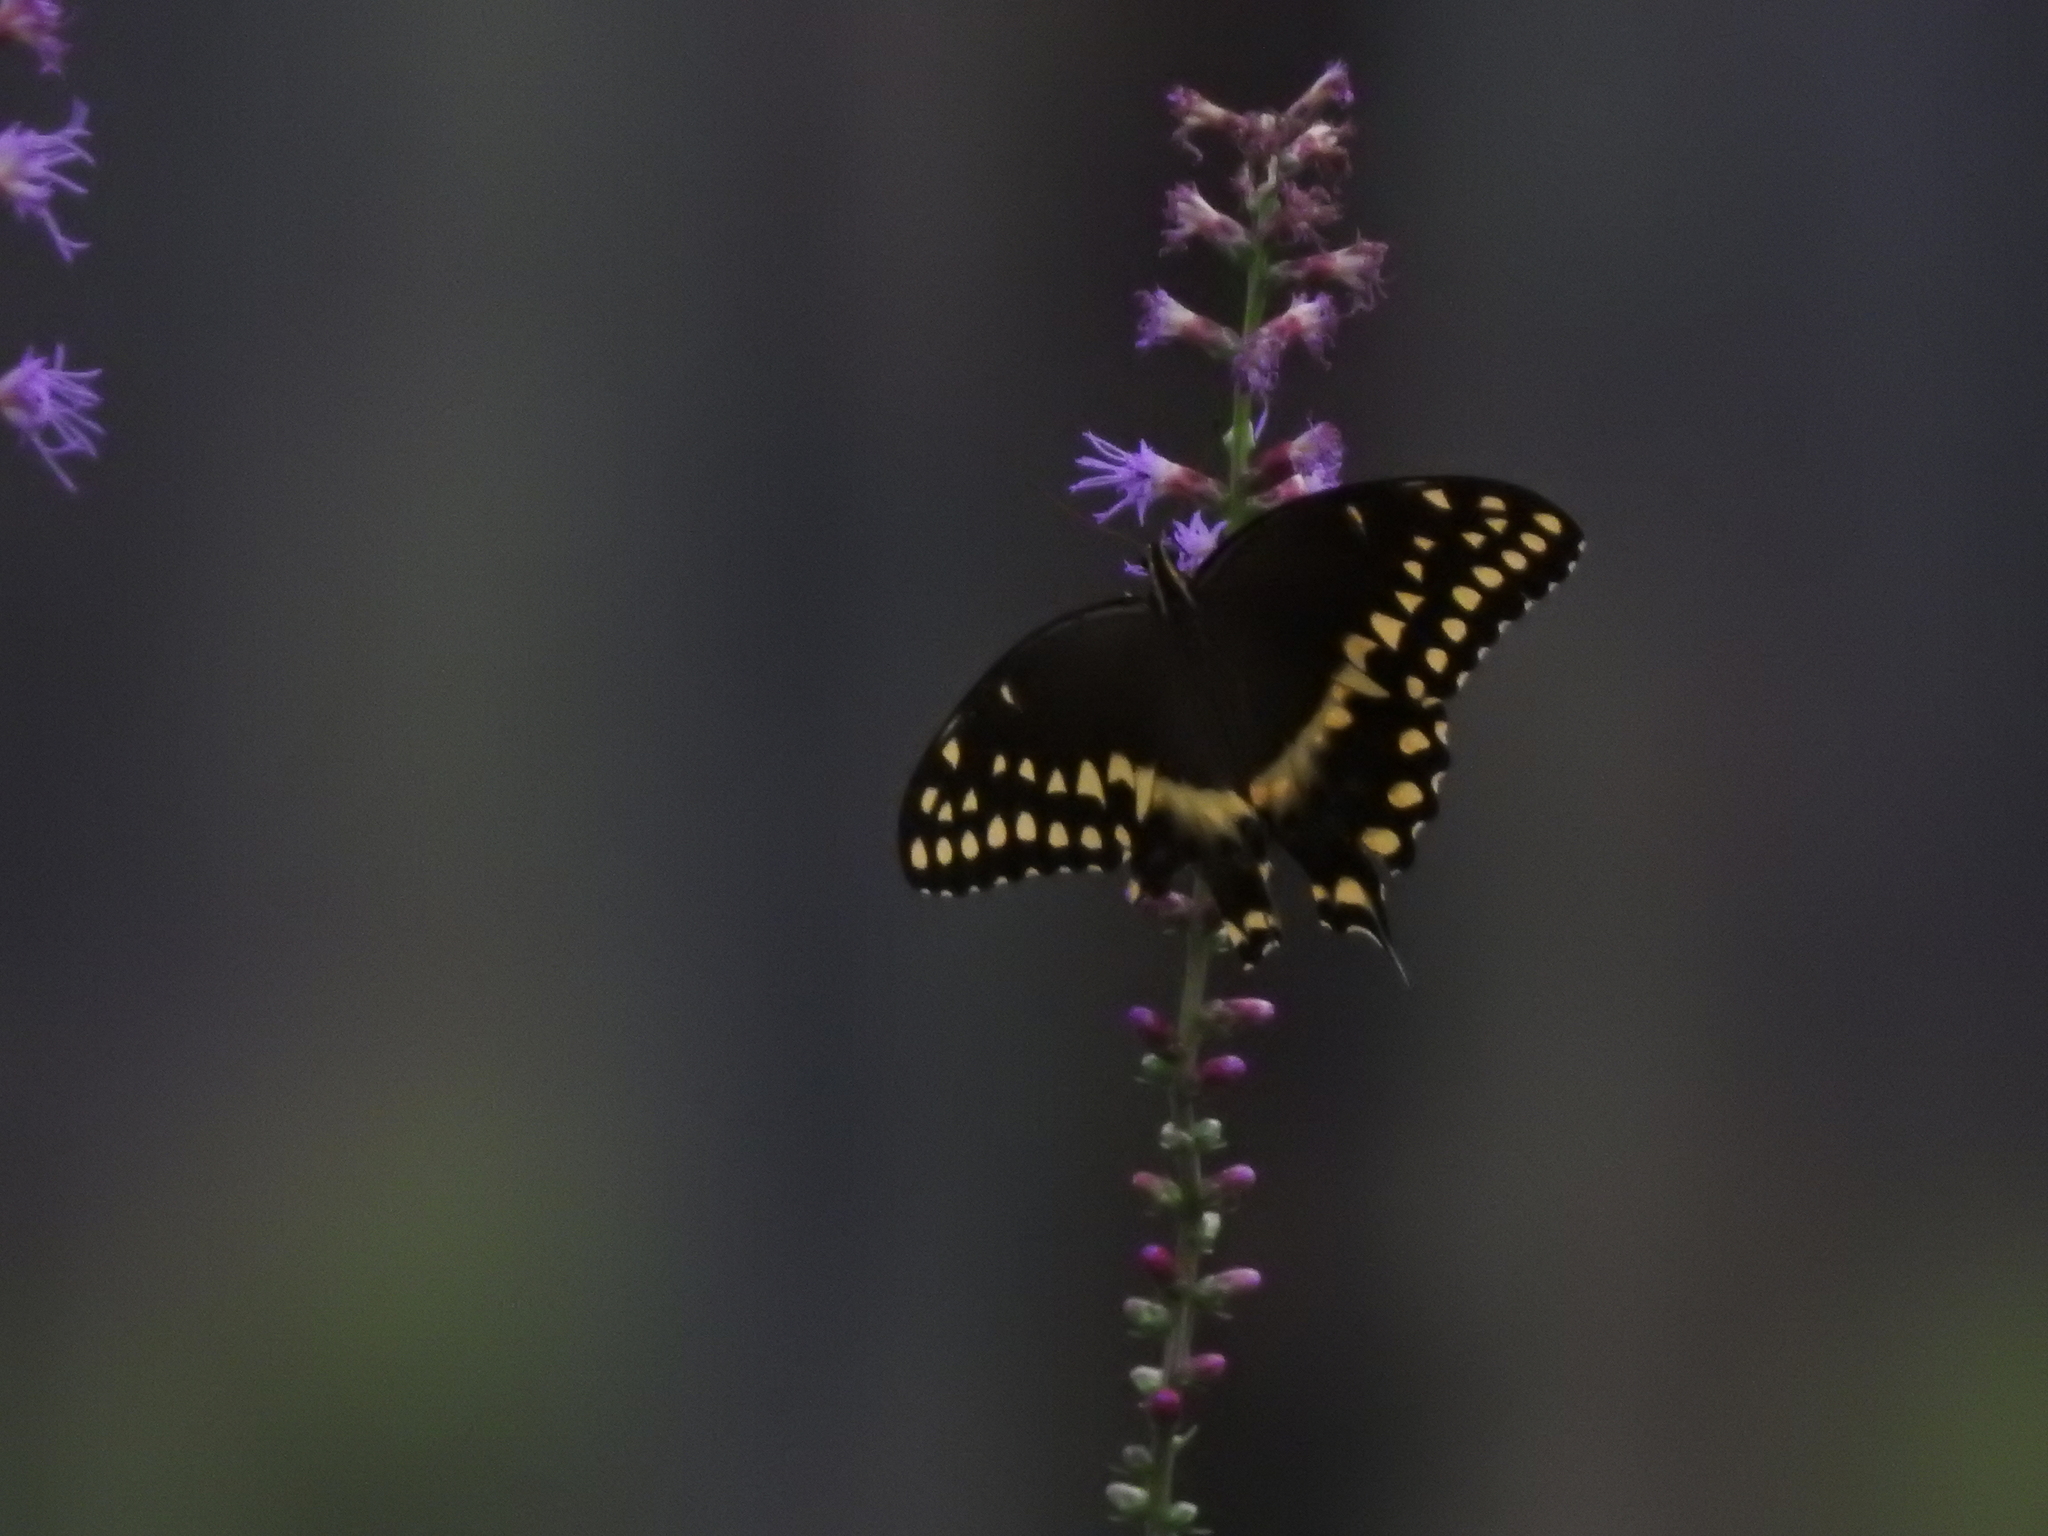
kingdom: Animalia
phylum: Arthropoda
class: Insecta
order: Lepidoptera
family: Papilionidae
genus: Papilio
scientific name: Papilio palamedes
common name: Palamedes swallowtail
